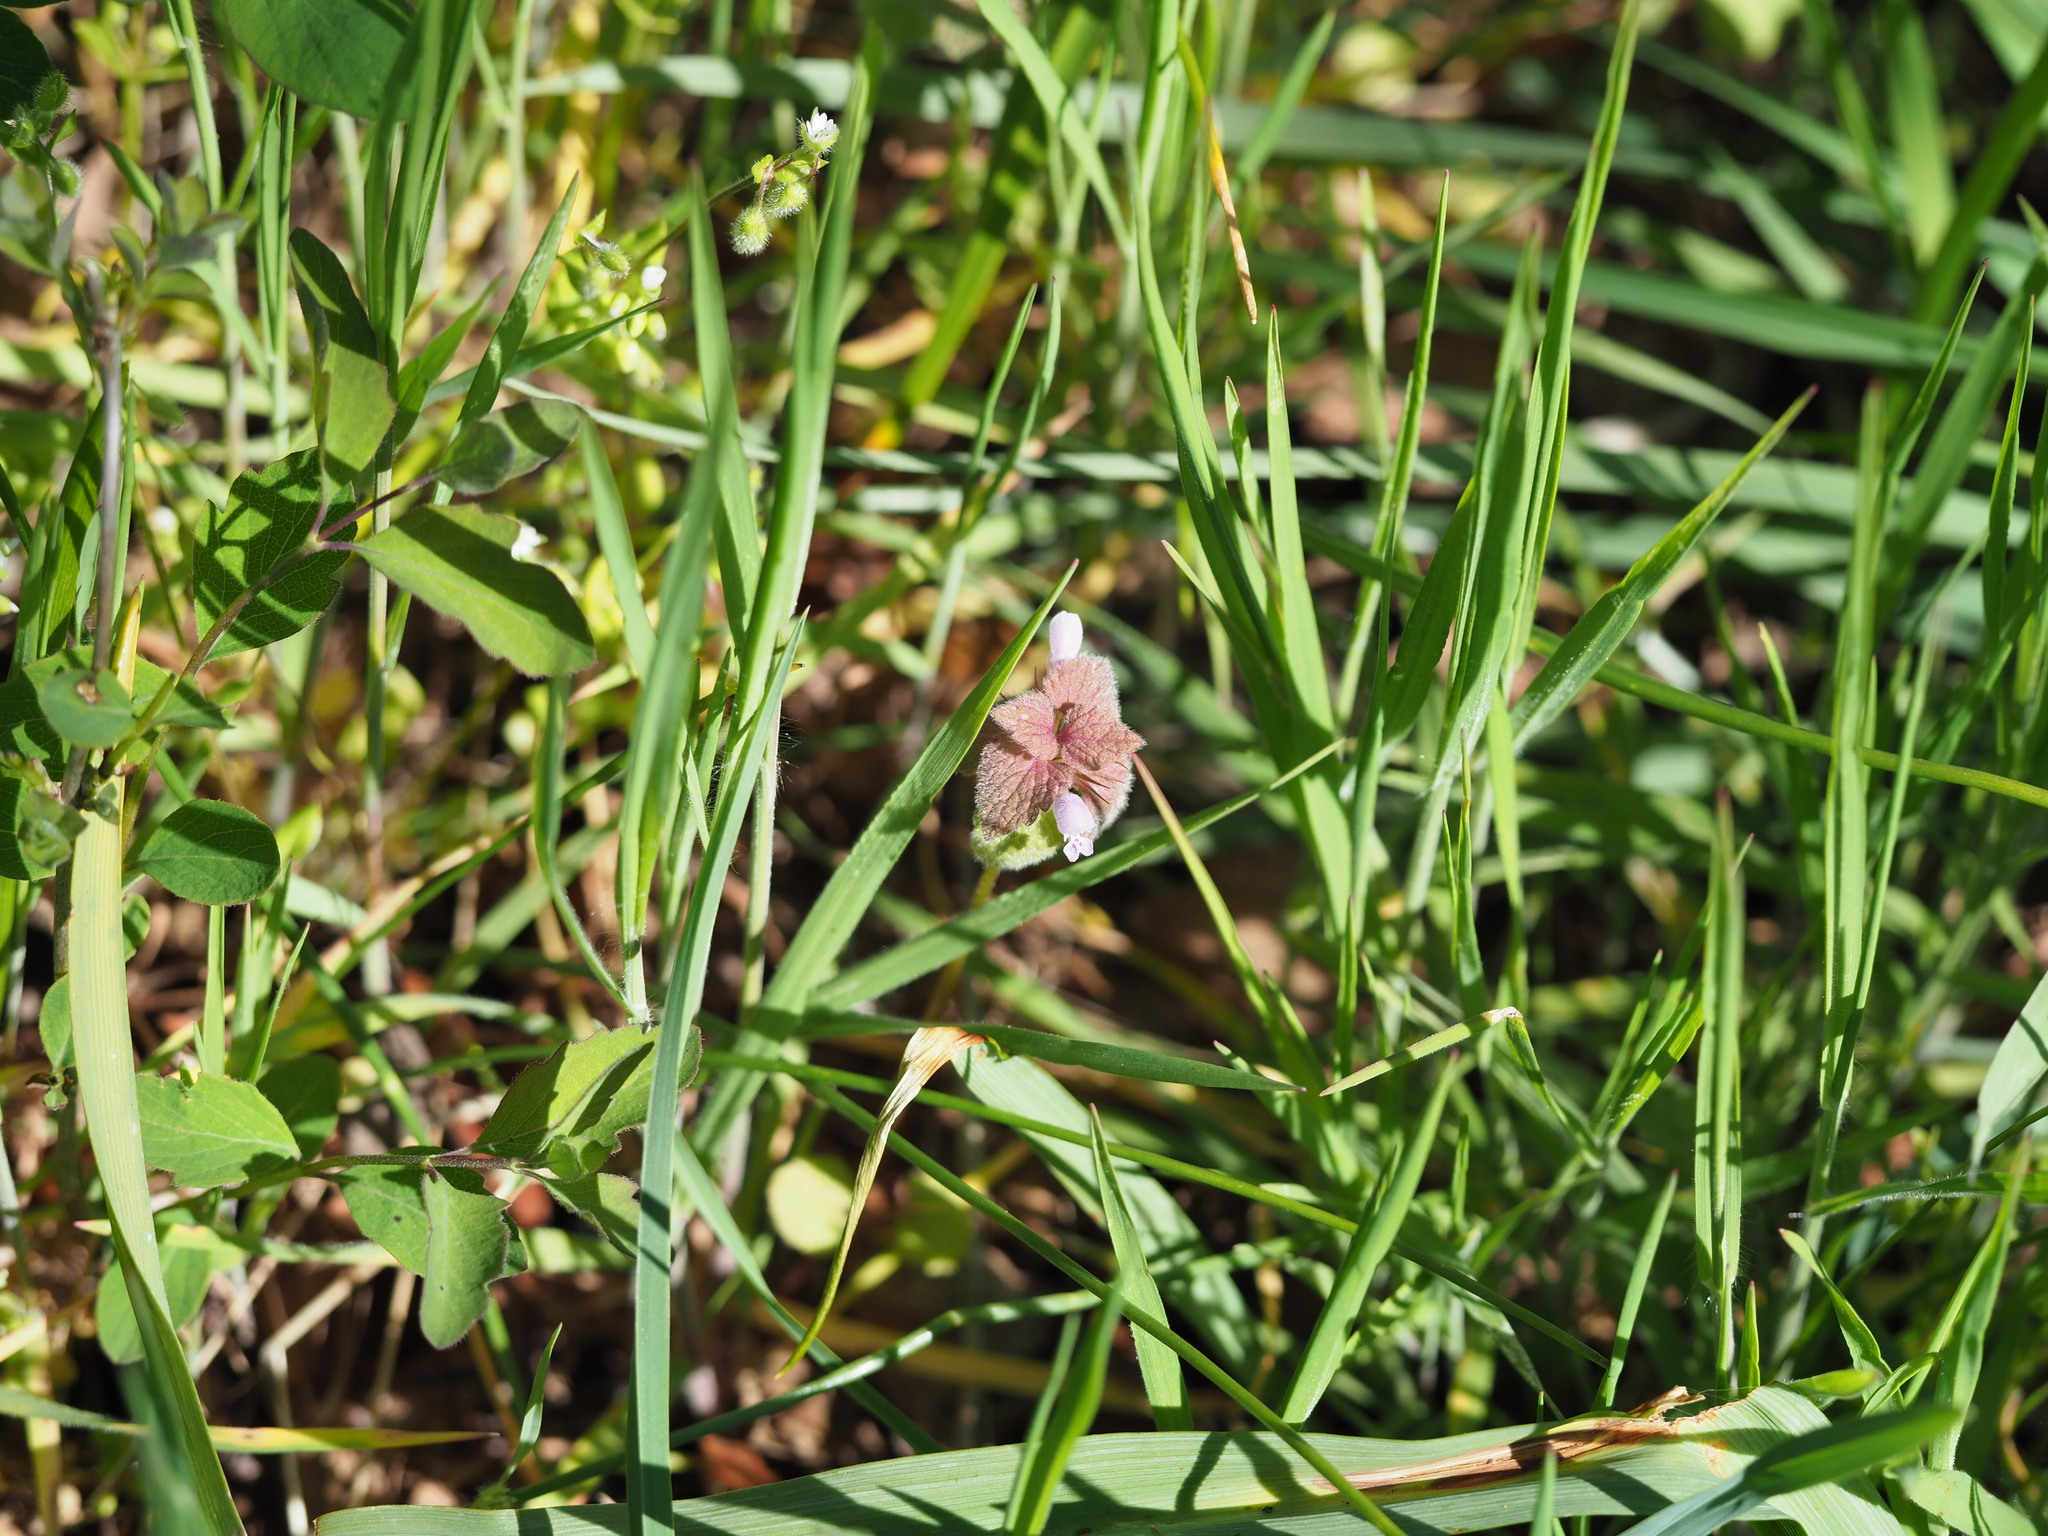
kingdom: Plantae
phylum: Tracheophyta
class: Magnoliopsida
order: Lamiales
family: Lamiaceae
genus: Lamium
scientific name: Lamium purpureum
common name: Red dead-nettle
